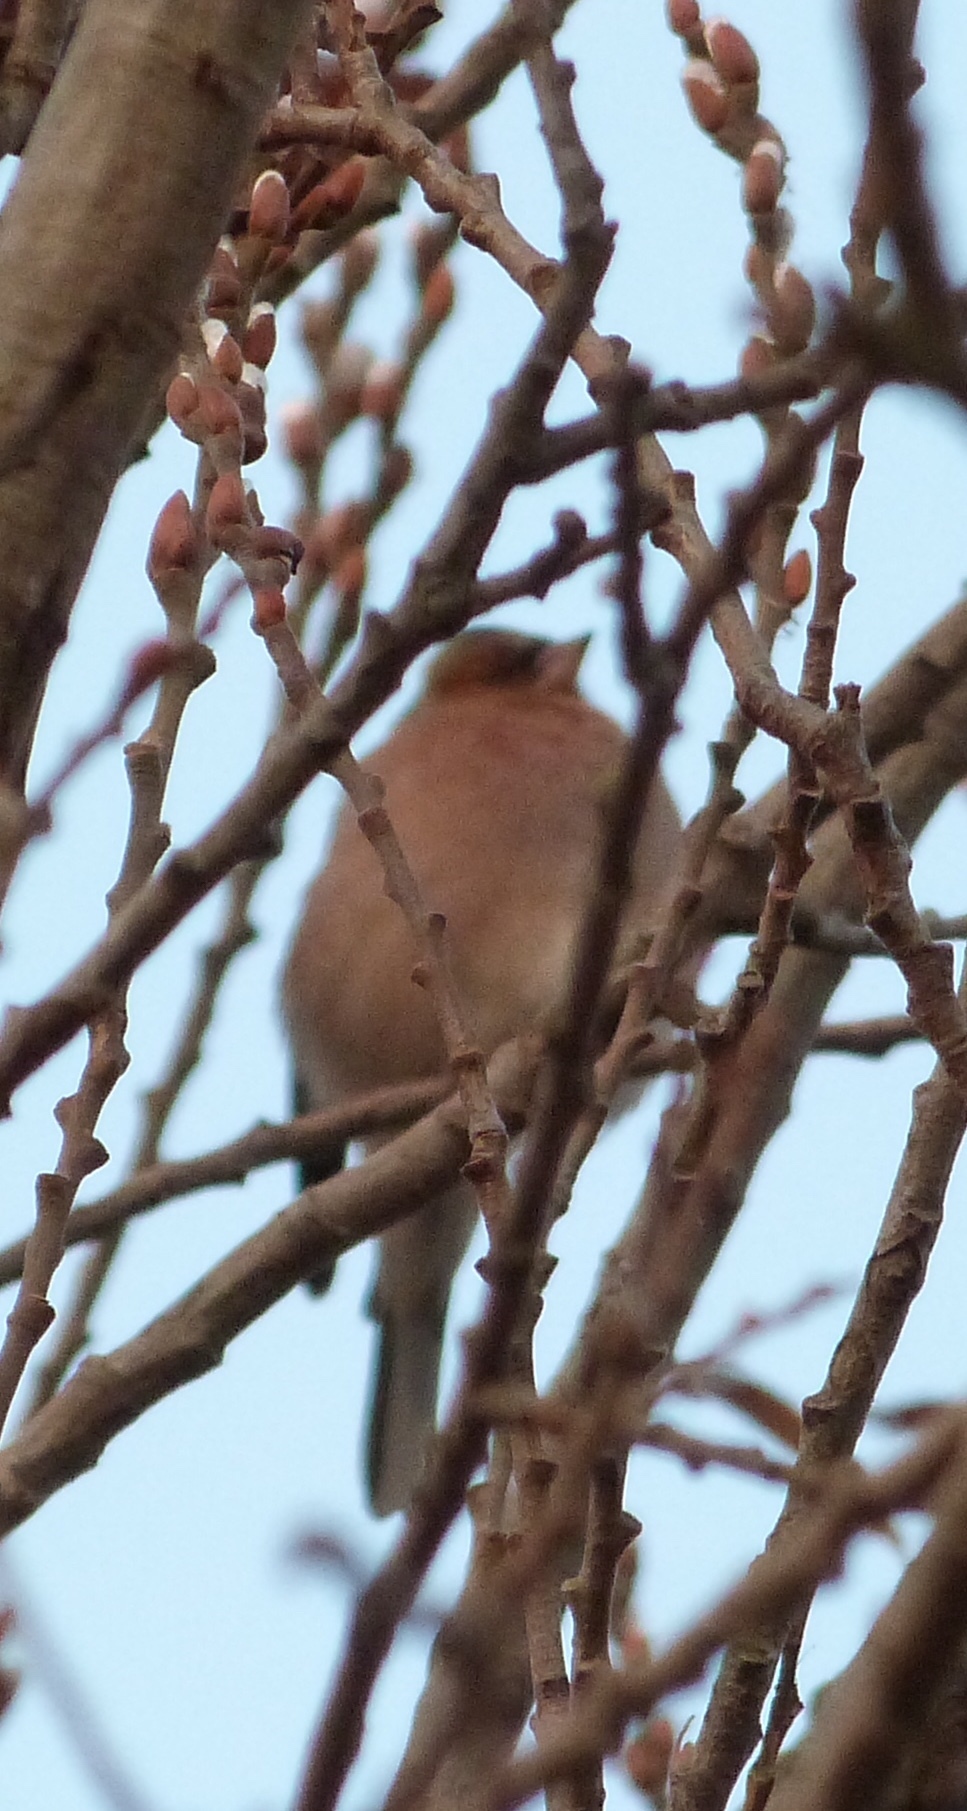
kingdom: Animalia
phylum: Chordata
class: Aves
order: Passeriformes
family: Fringillidae
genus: Fringilla
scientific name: Fringilla coelebs
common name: Common chaffinch
